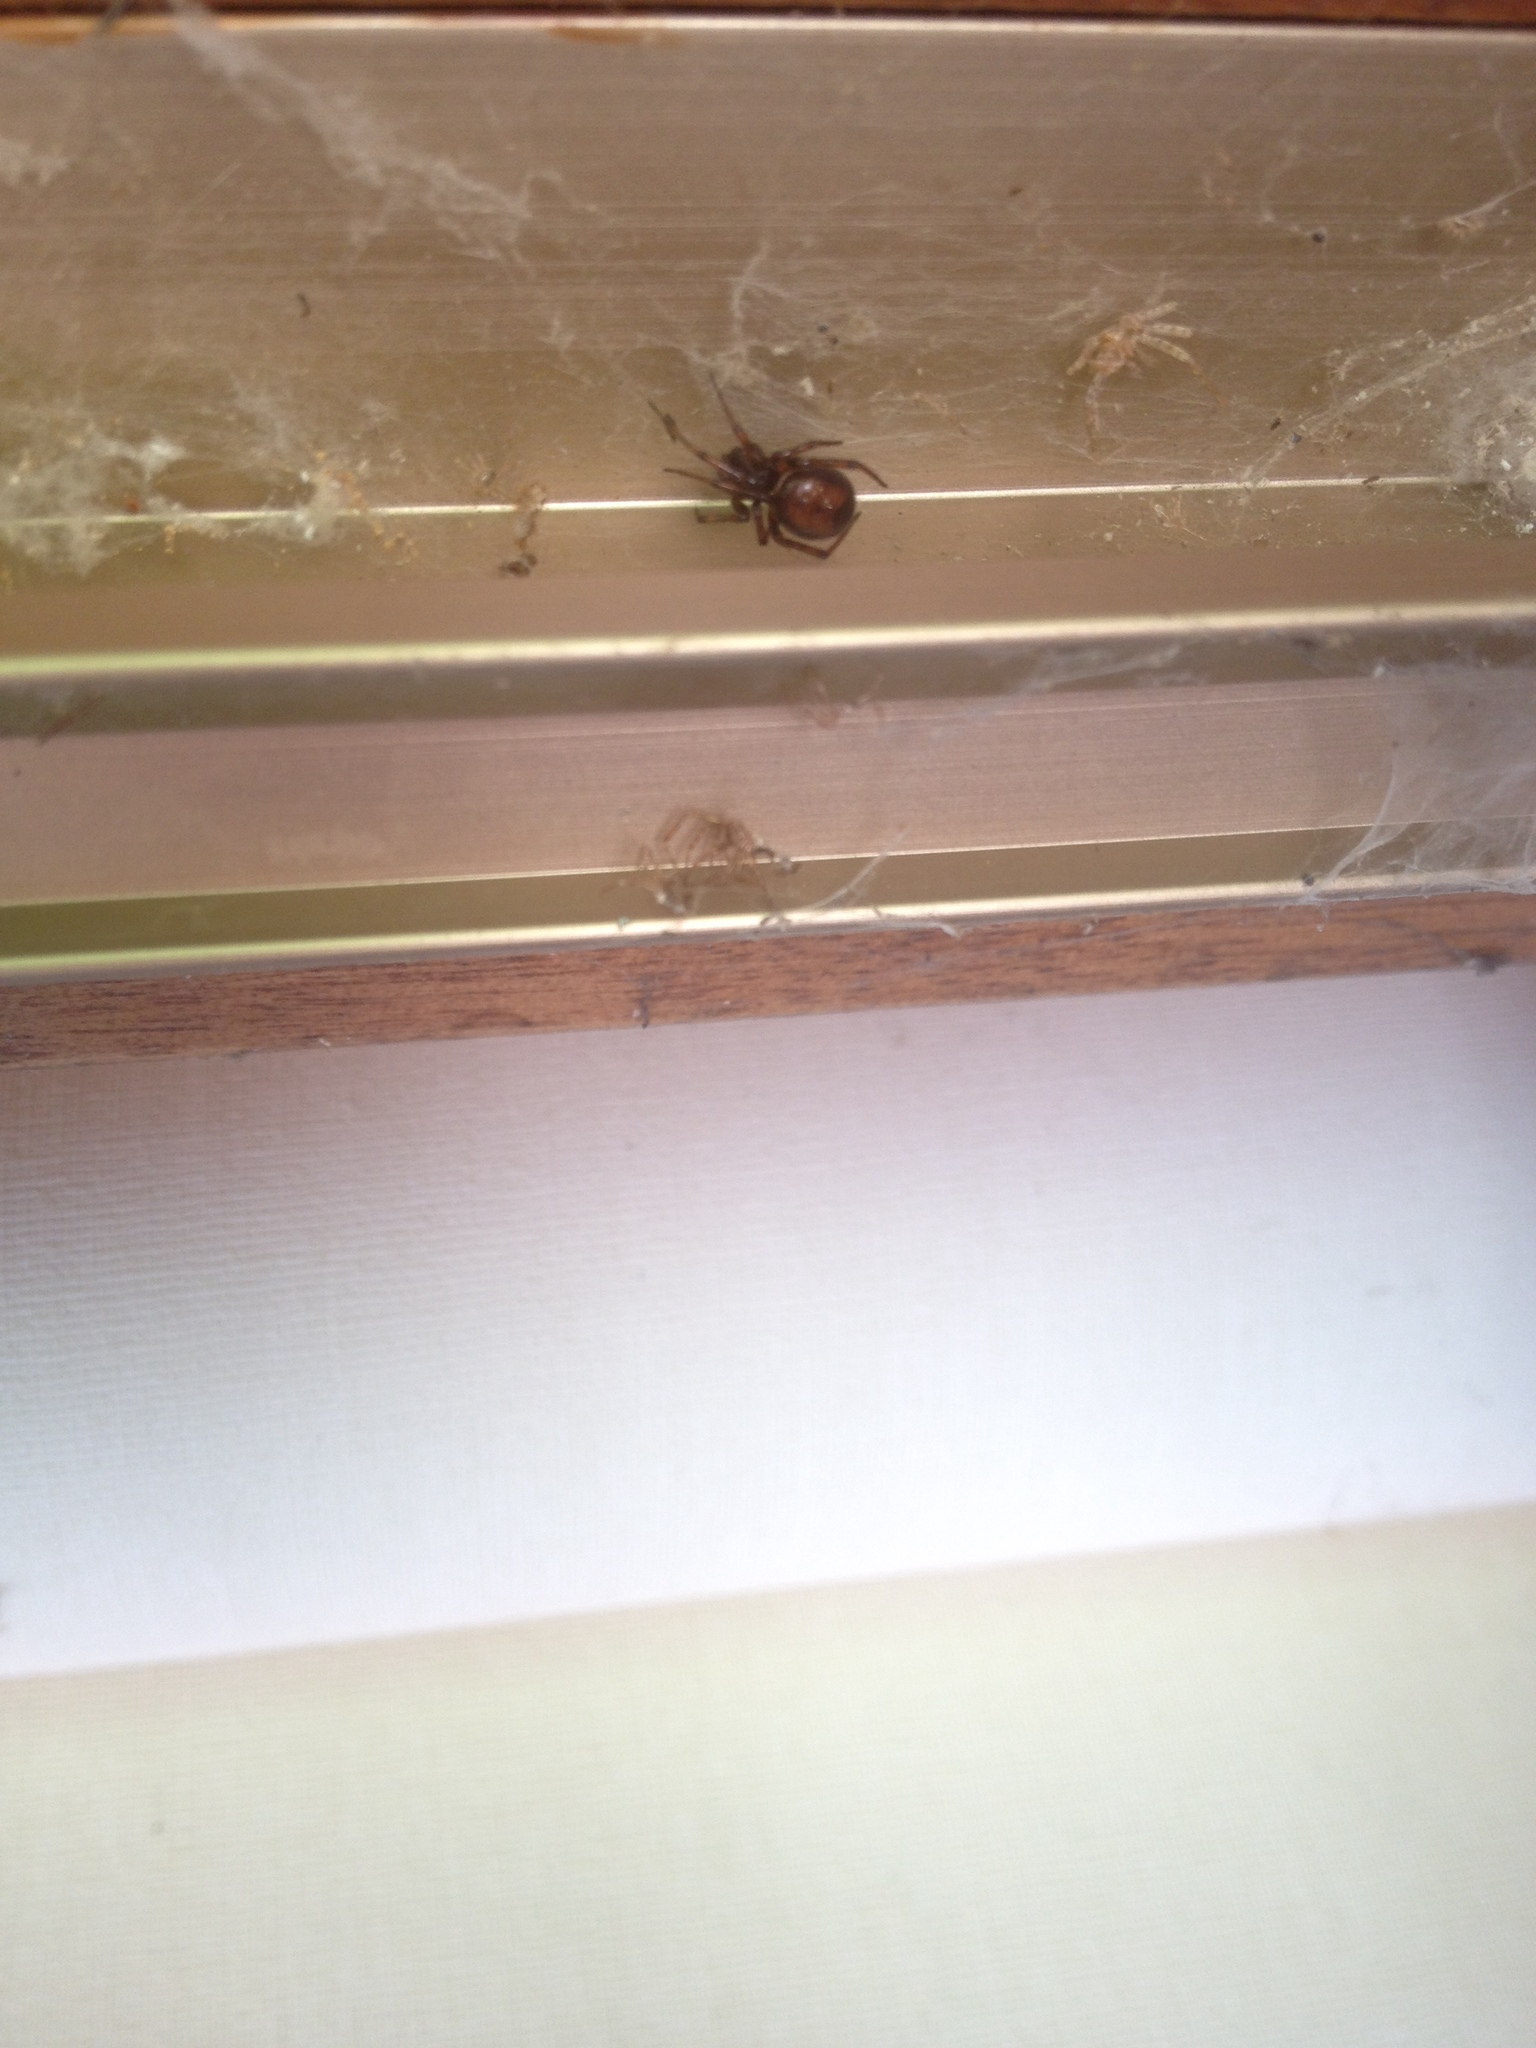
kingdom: Animalia
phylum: Arthropoda
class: Arachnida
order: Araneae
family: Theridiidae
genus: Steatoda
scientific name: Steatoda bipunctata
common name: False widow
